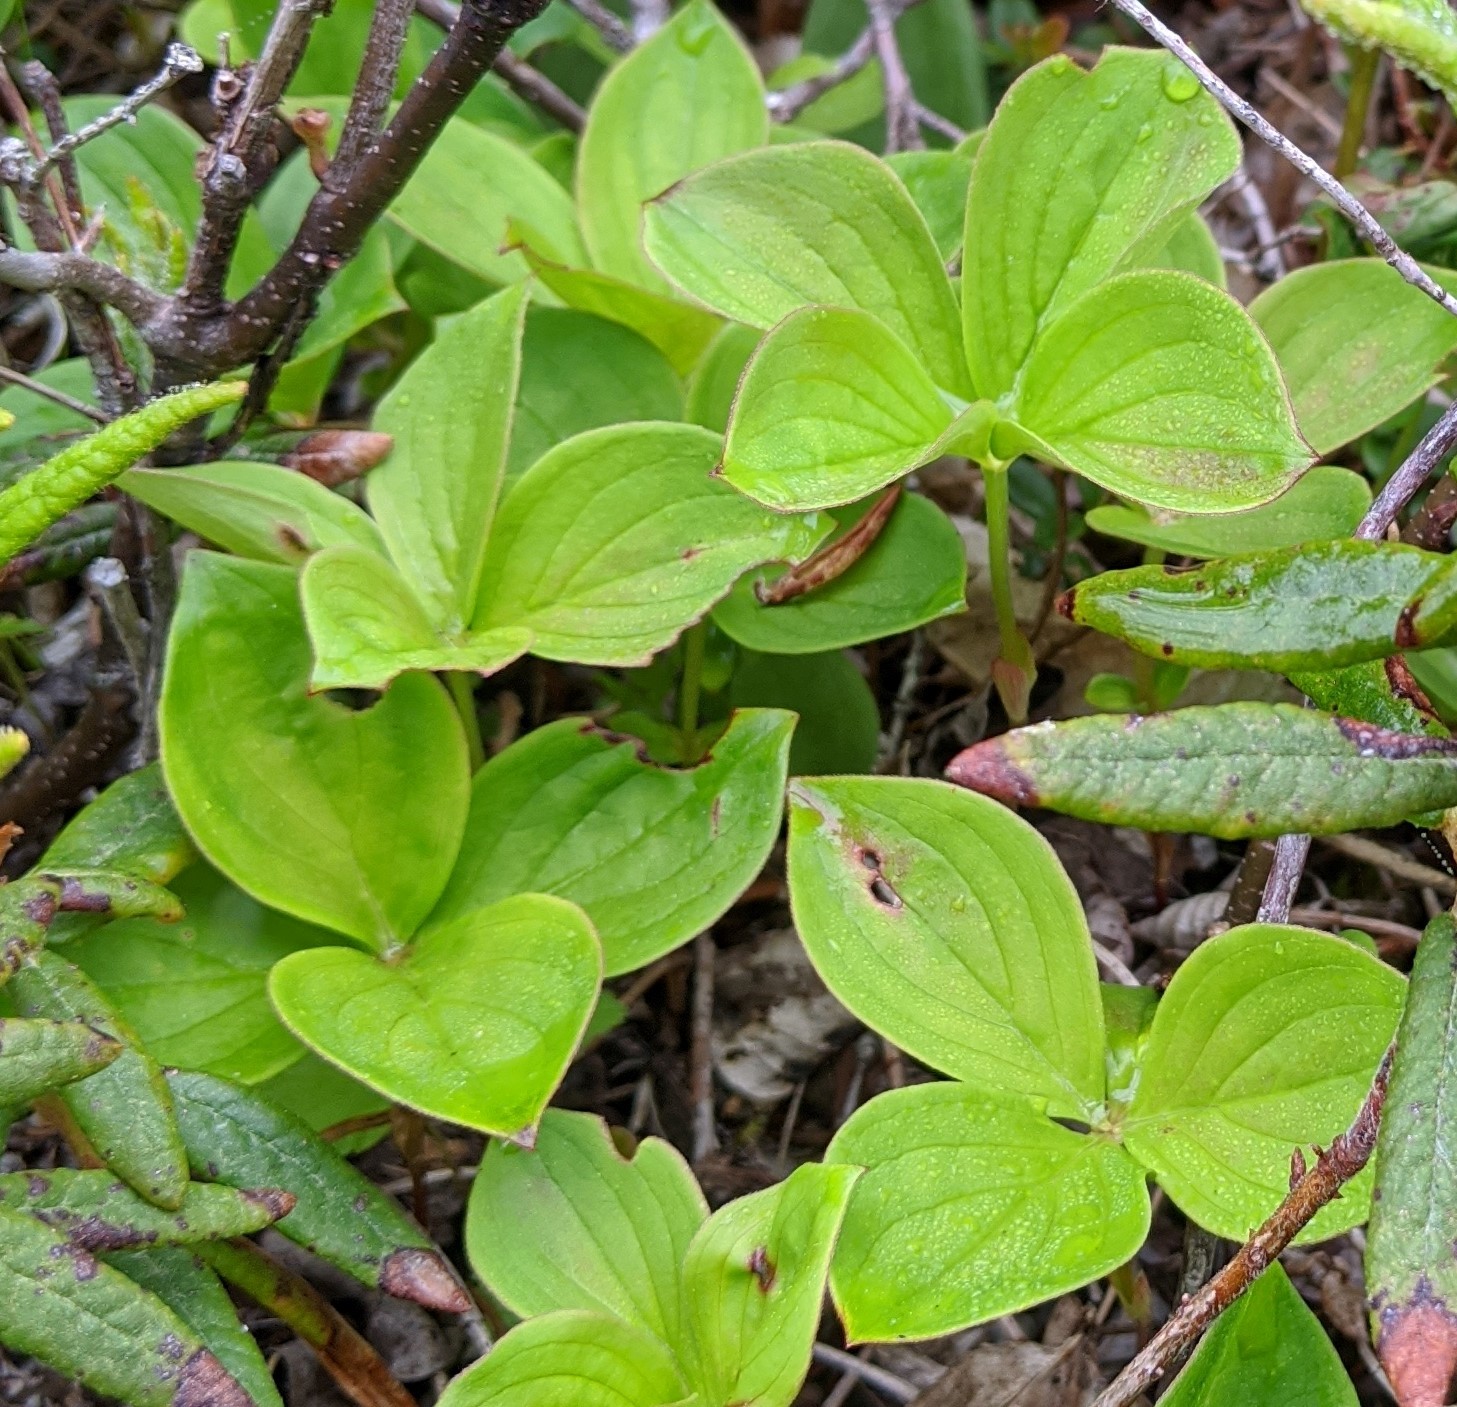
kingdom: Plantae
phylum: Tracheophyta
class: Magnoliopsida
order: Cornales
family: Cornaceae
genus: Cornus
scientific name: Cornus canadensis
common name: Creeping dogwood
